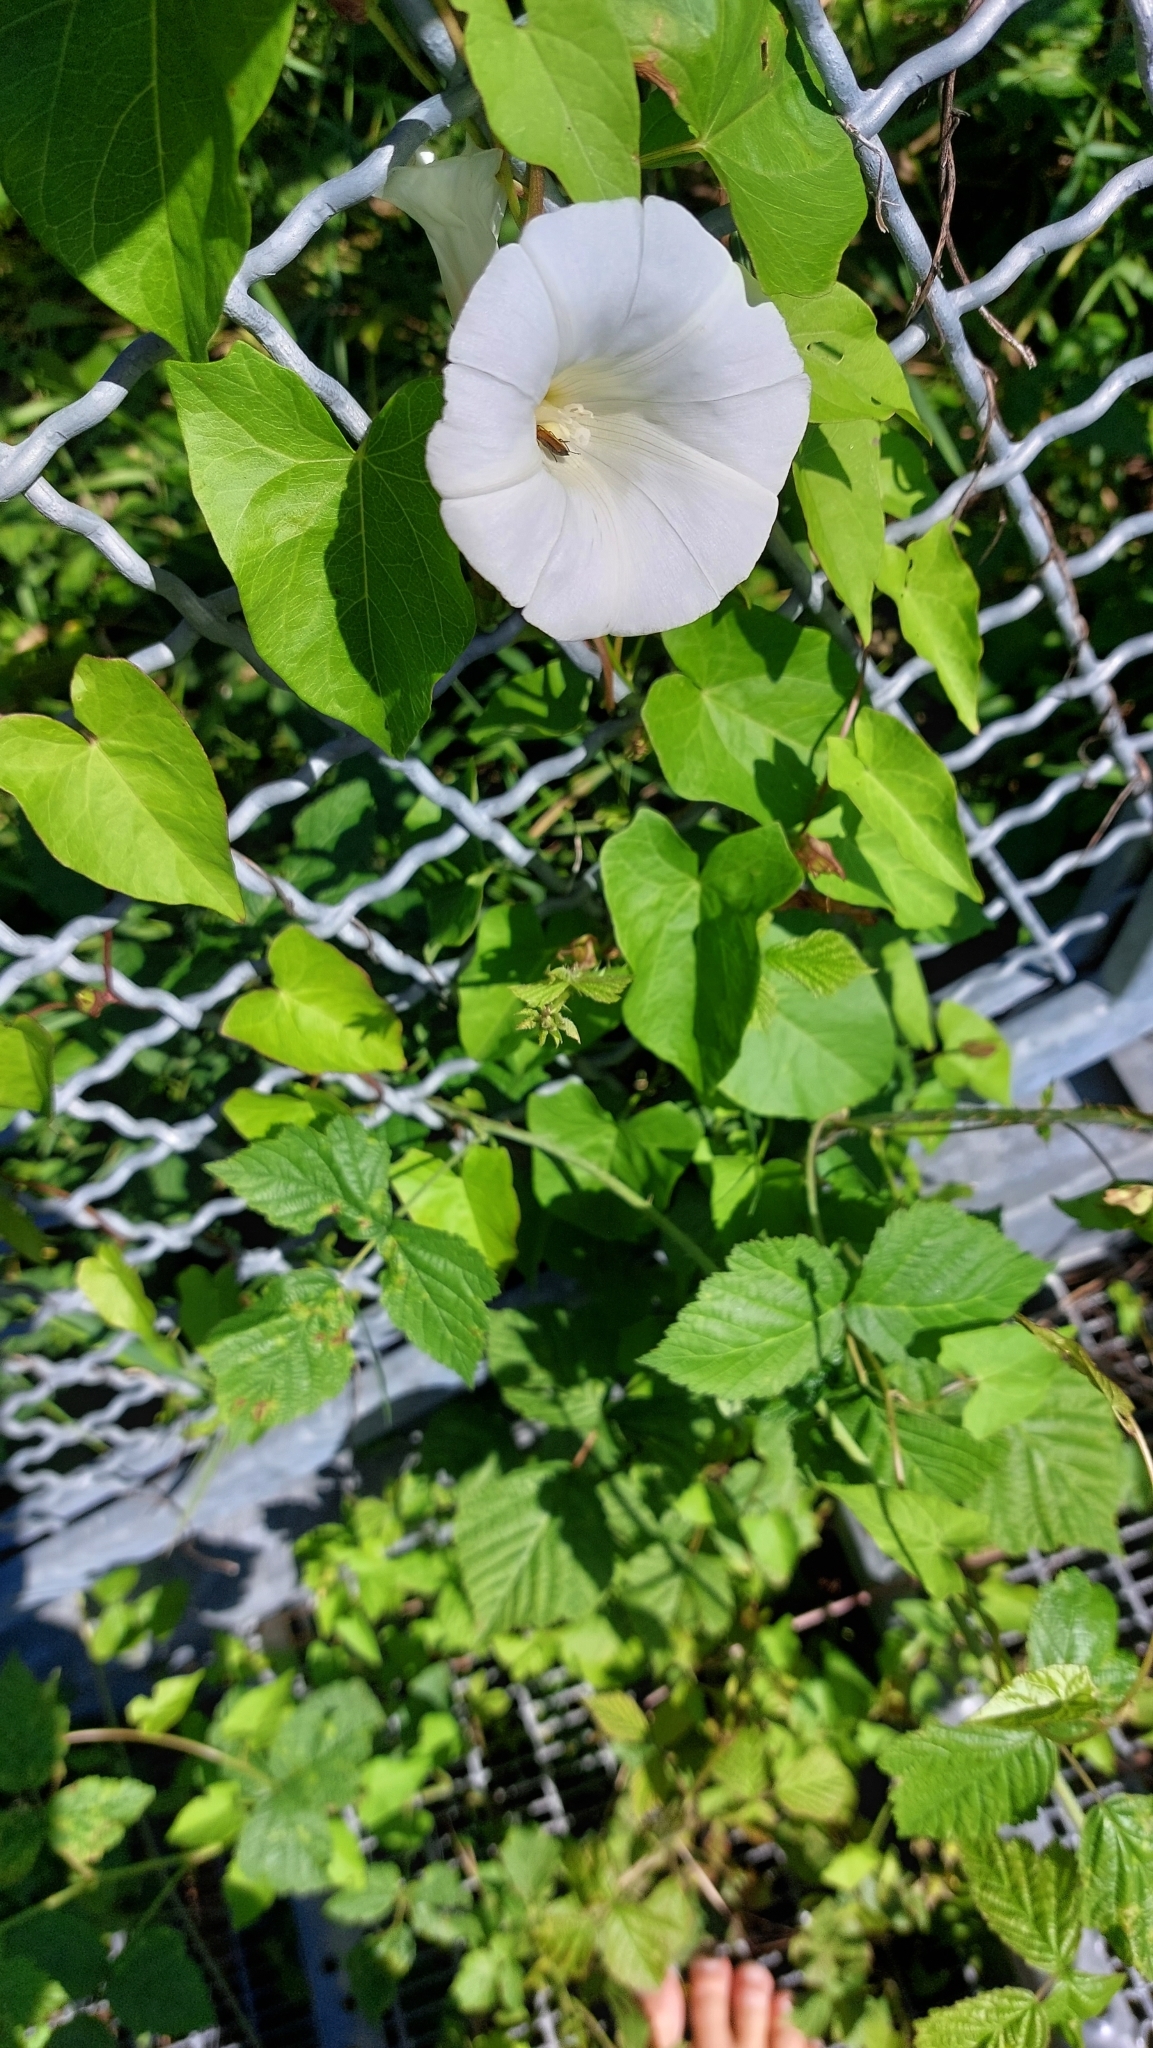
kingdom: Plantae
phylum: Tracheophyta
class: Magnoliopsida
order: Solanales
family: Convolvulaceae
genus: Calystegia
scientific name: Calystegia sepium
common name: Hedge bindweed
